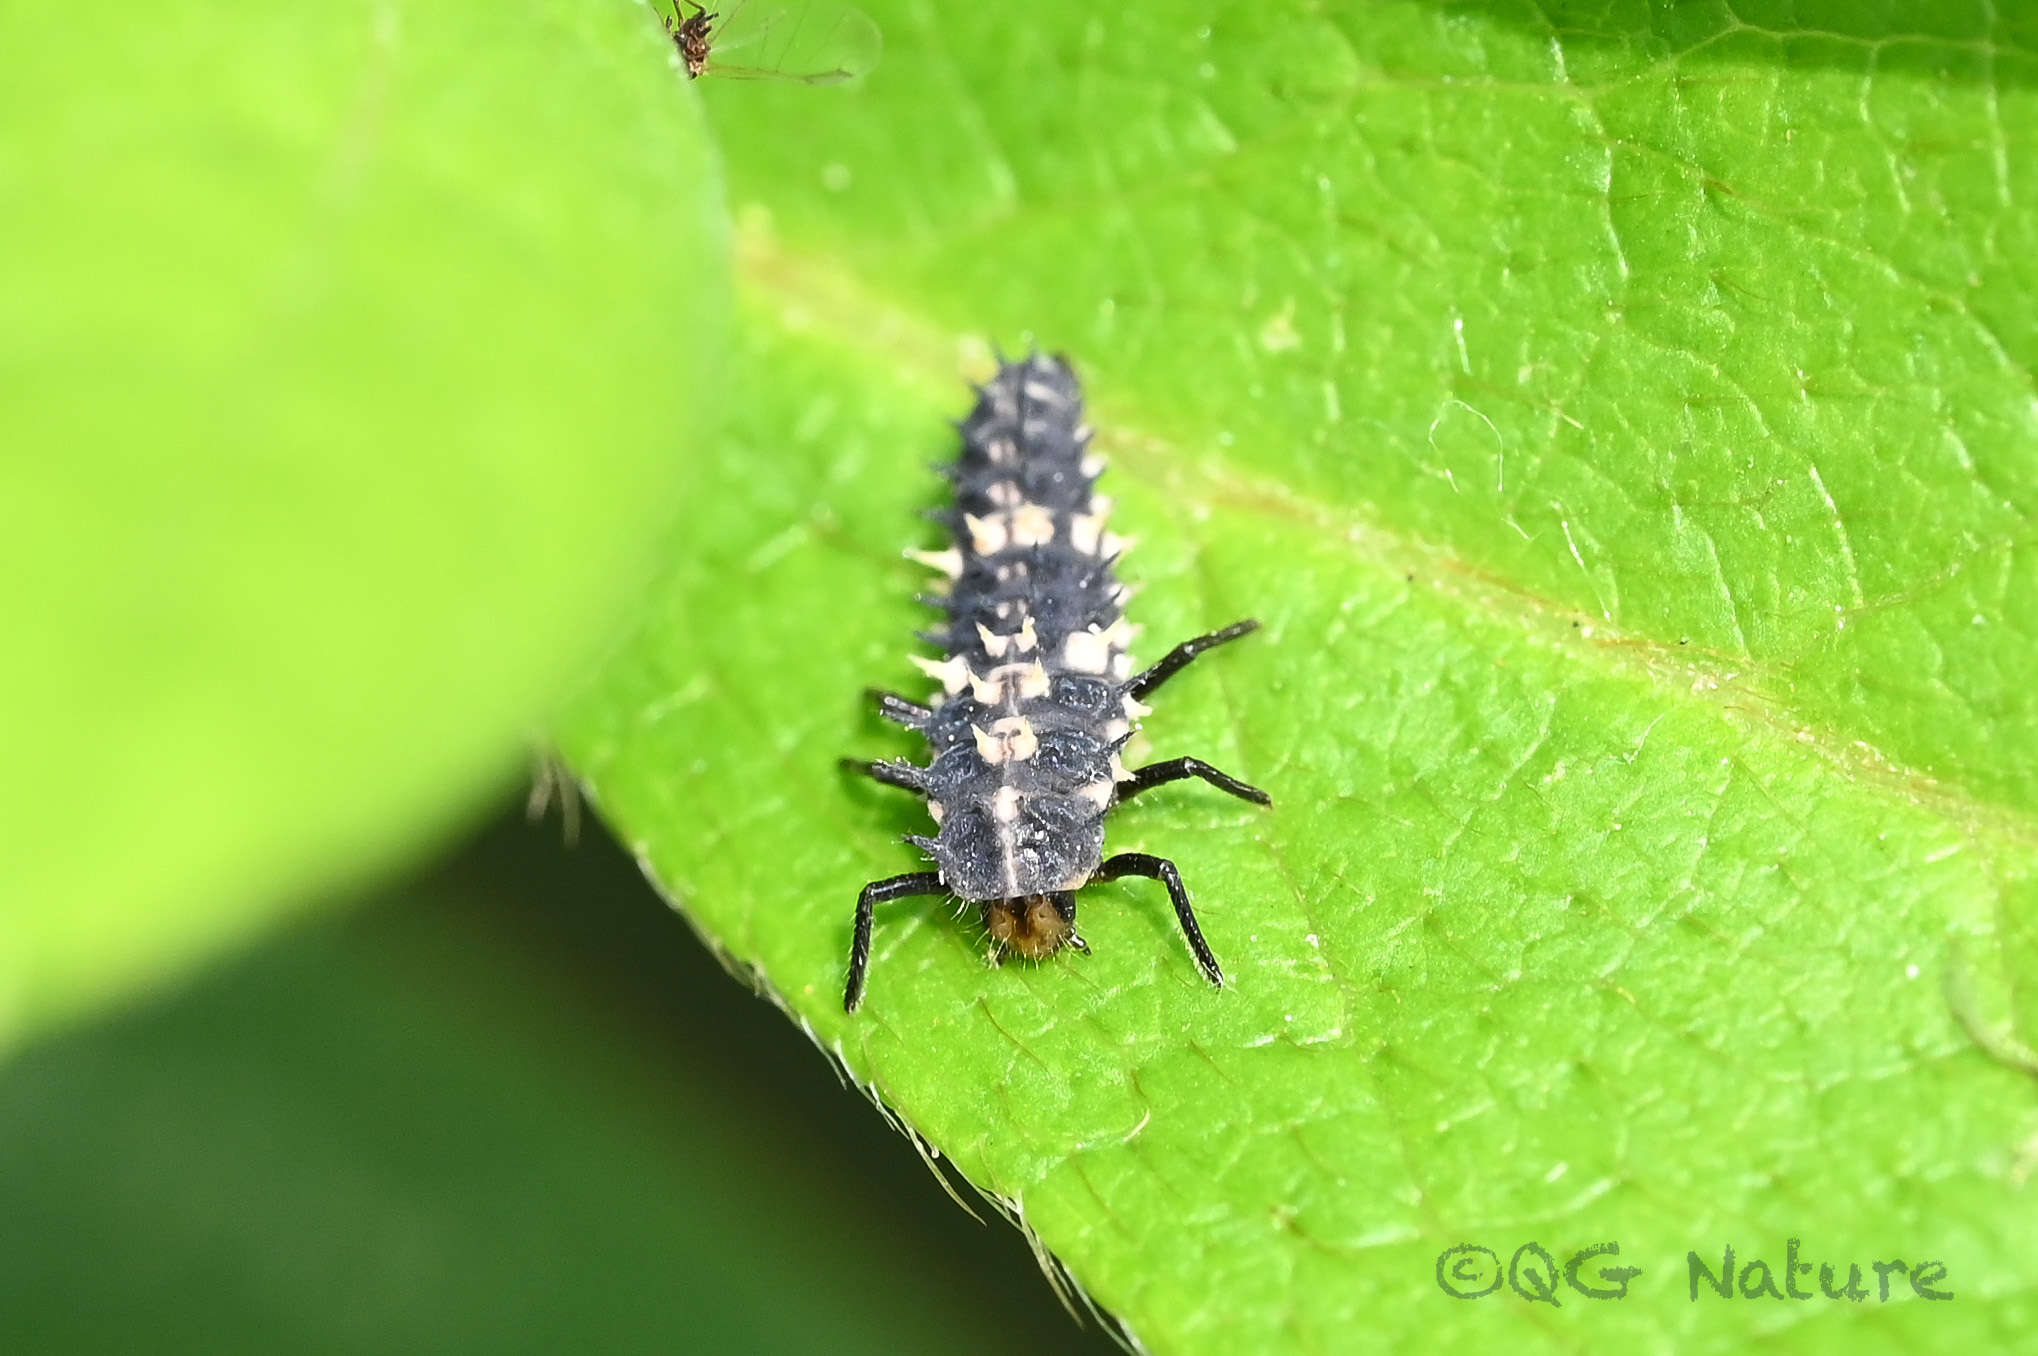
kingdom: Animalia
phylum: Arthropoda
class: Insecta
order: Coleoptera
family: Coccinellidae
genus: Cheilomenes
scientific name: Cheilomenes sexmaculata
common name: Ladybird beetle
